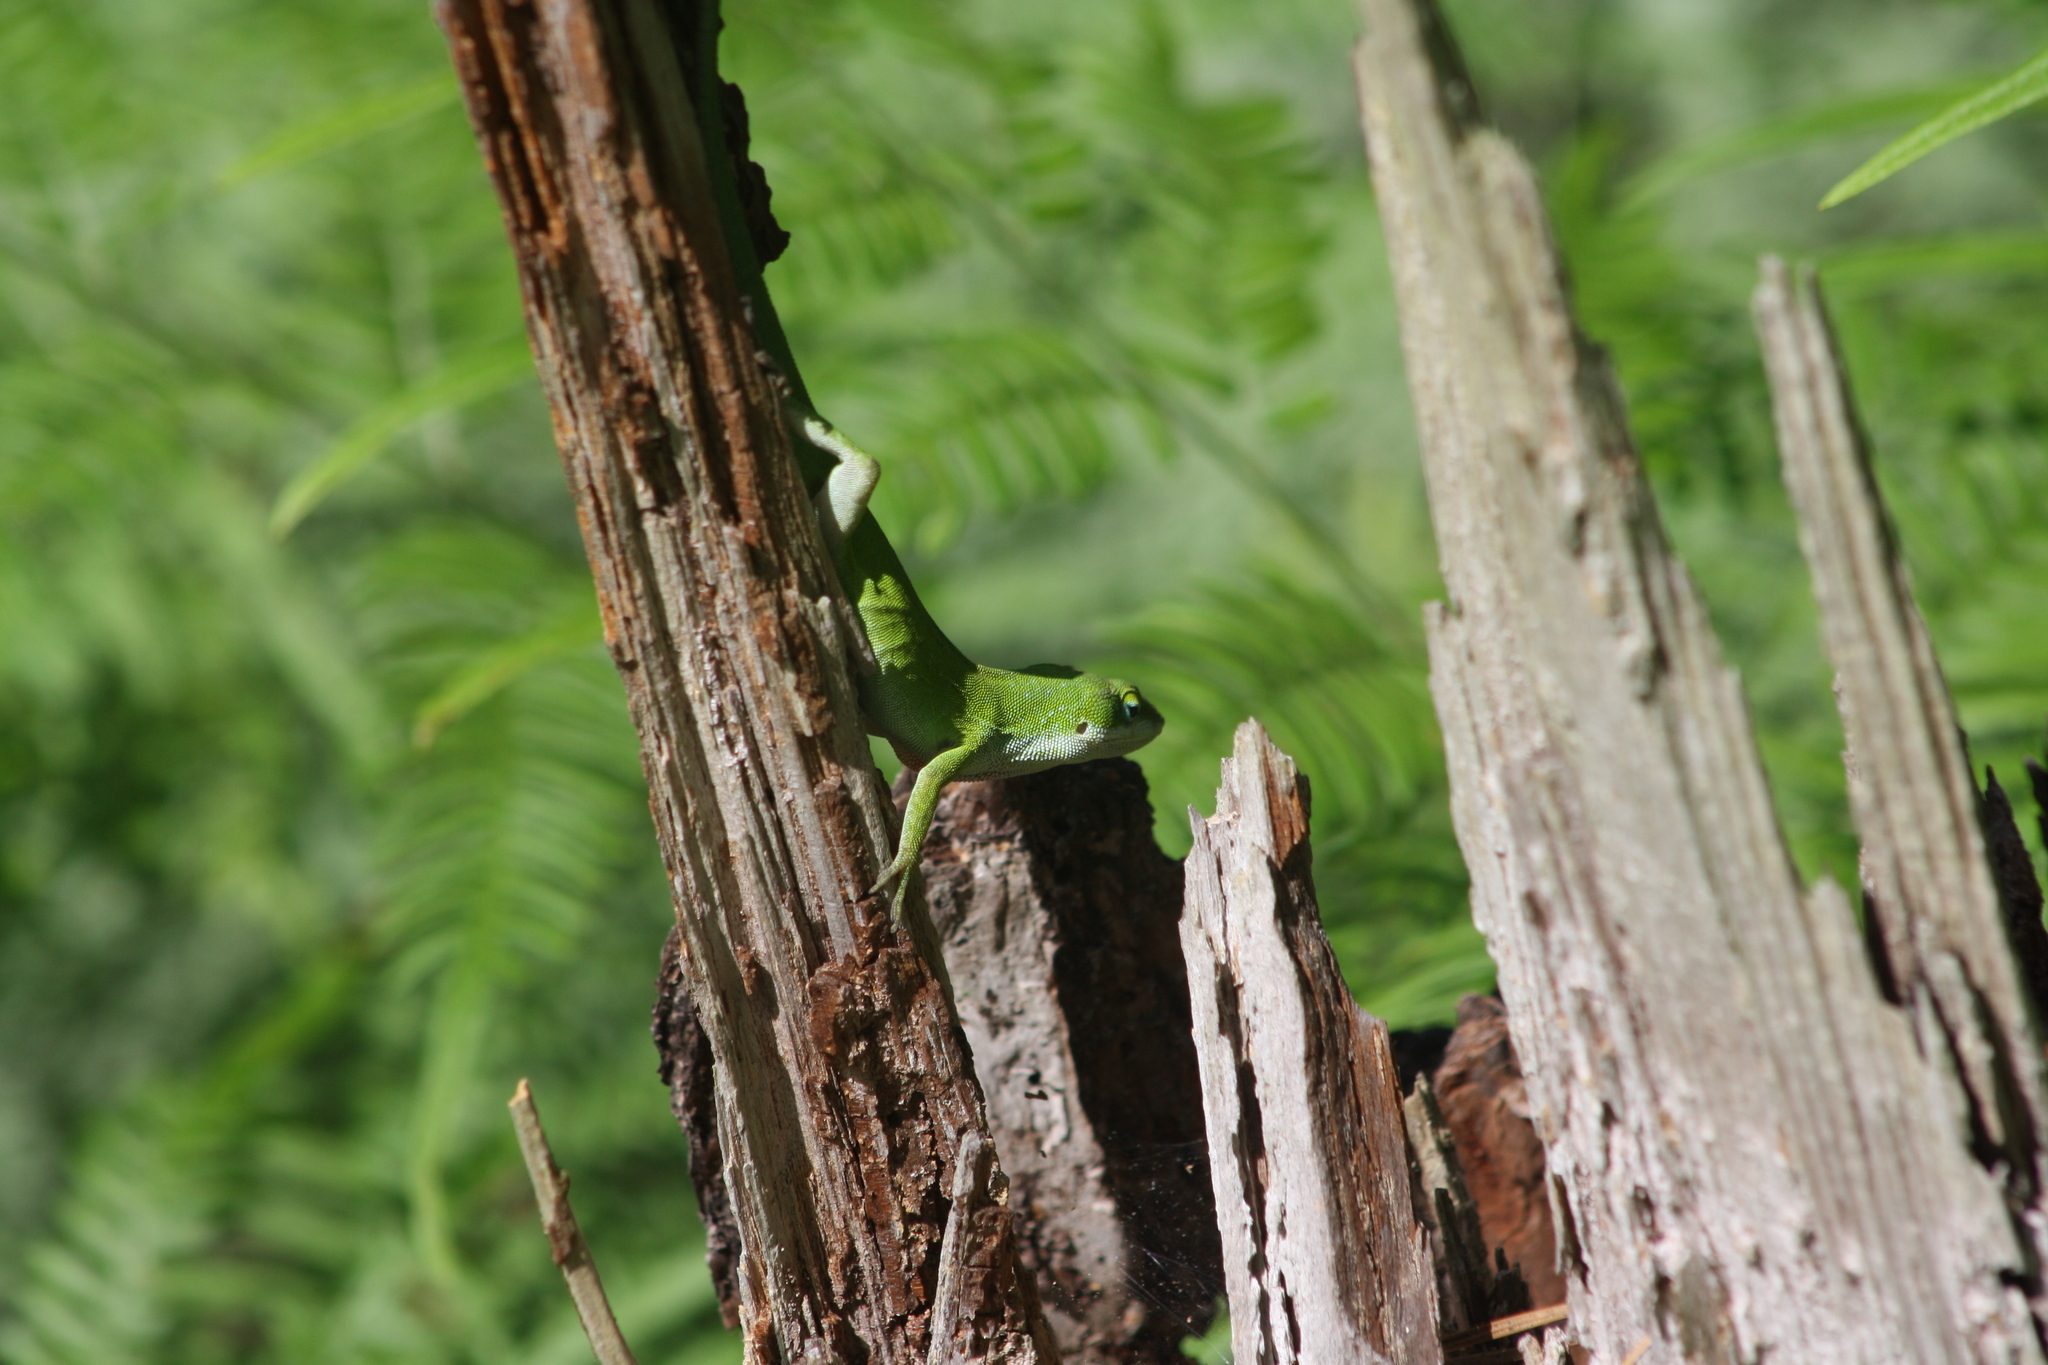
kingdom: Animalia
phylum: Chordata
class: Squamata
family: Dactyloidae
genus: Anolis
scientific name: Anolis carolinensis
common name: Green anole
